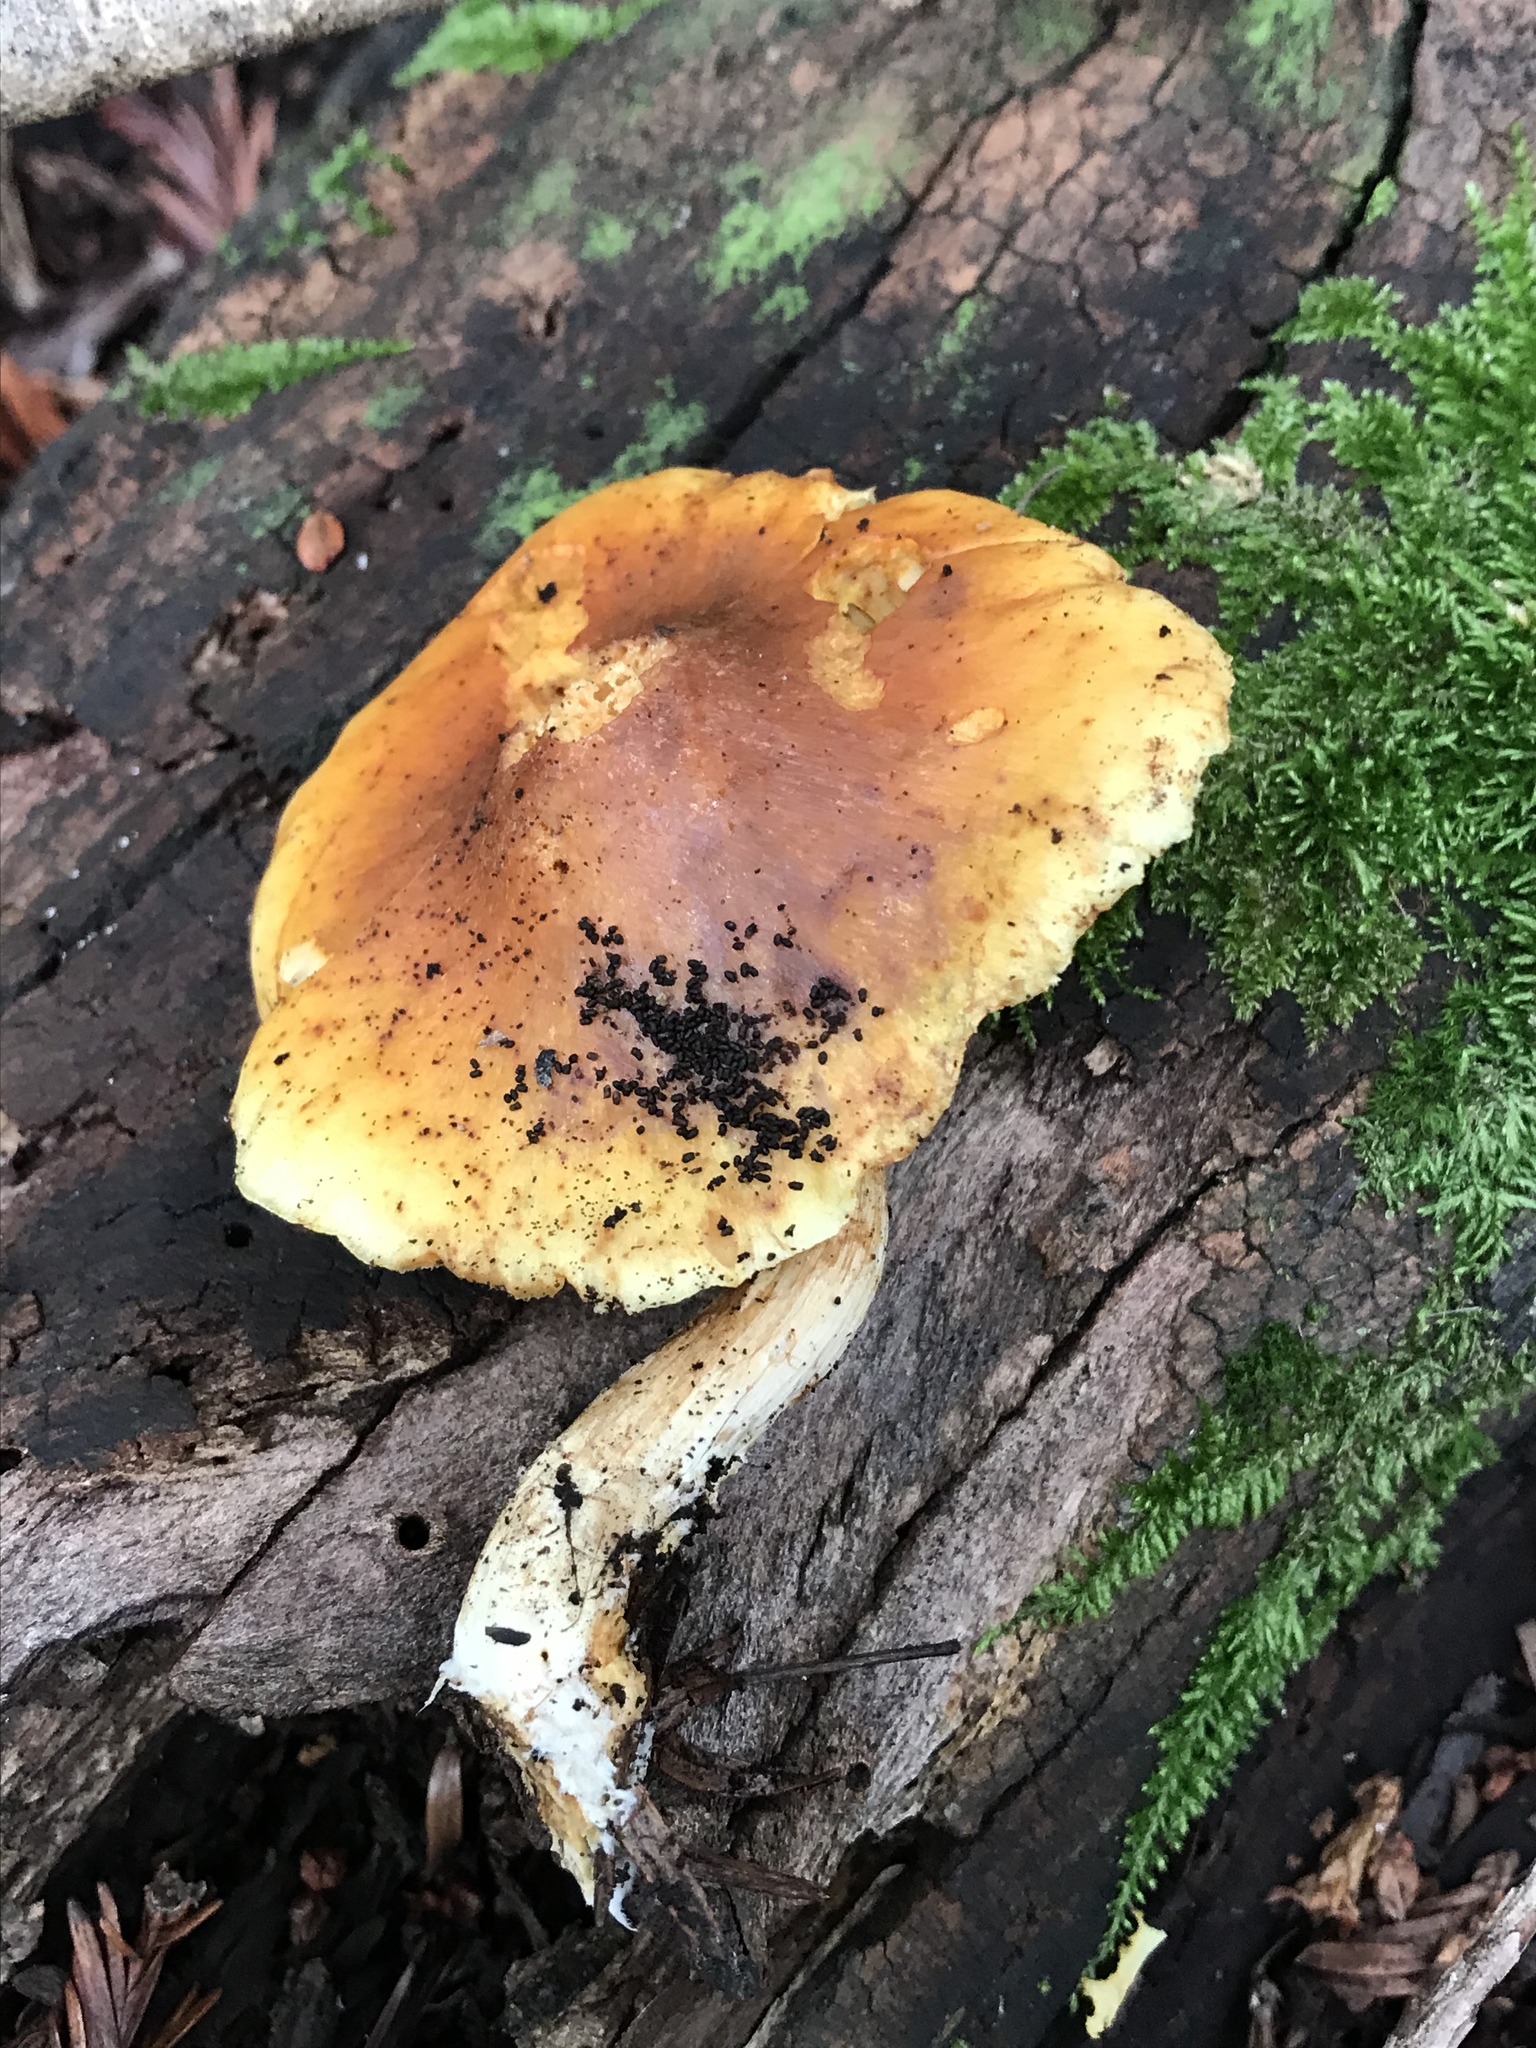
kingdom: Fungi
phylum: Basidiomycota
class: Agaricomycetes
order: Agaricales
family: Hymenogastraceae
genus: Gymnopilus
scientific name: Gymnopilus sapineus
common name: Scaly rustgill
